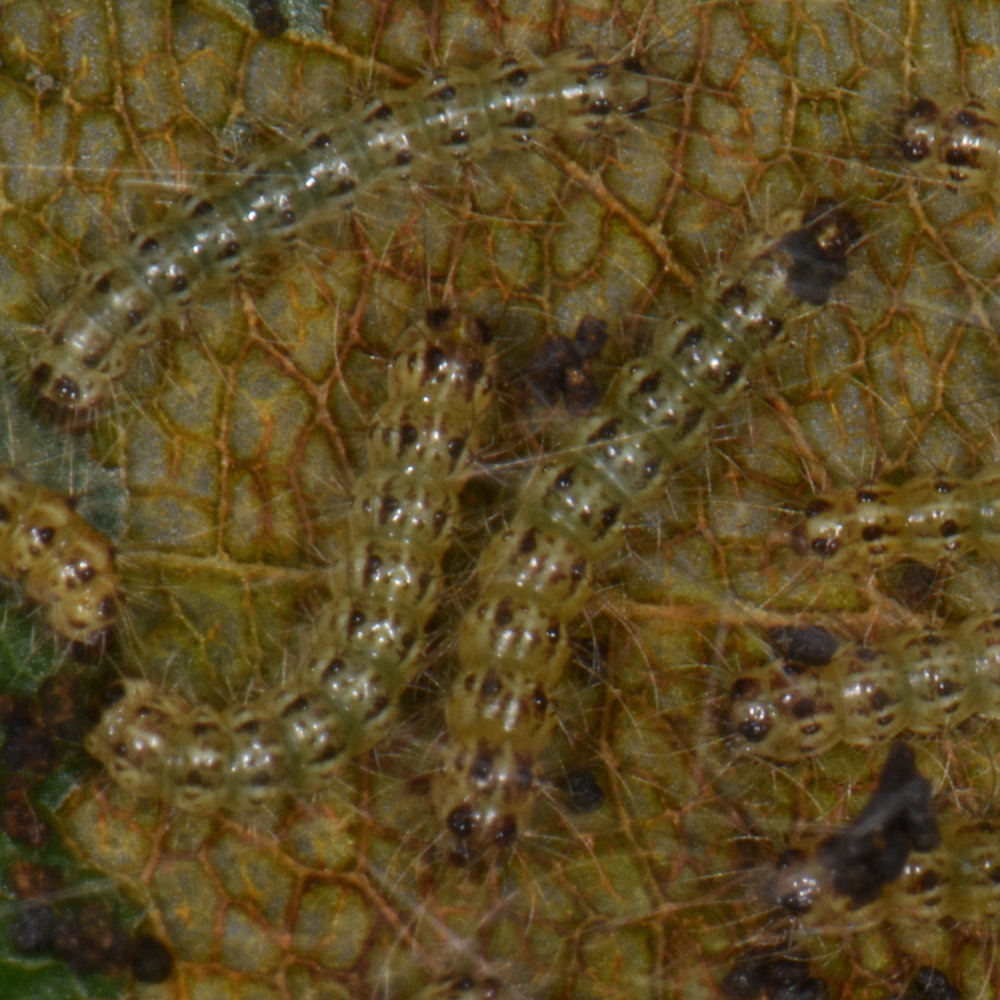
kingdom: Animalia
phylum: Arthropoda
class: Insecta
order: Lepidoptera
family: Erebidae
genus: Hyphantria
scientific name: Hyphantria cunea
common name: American white moth
